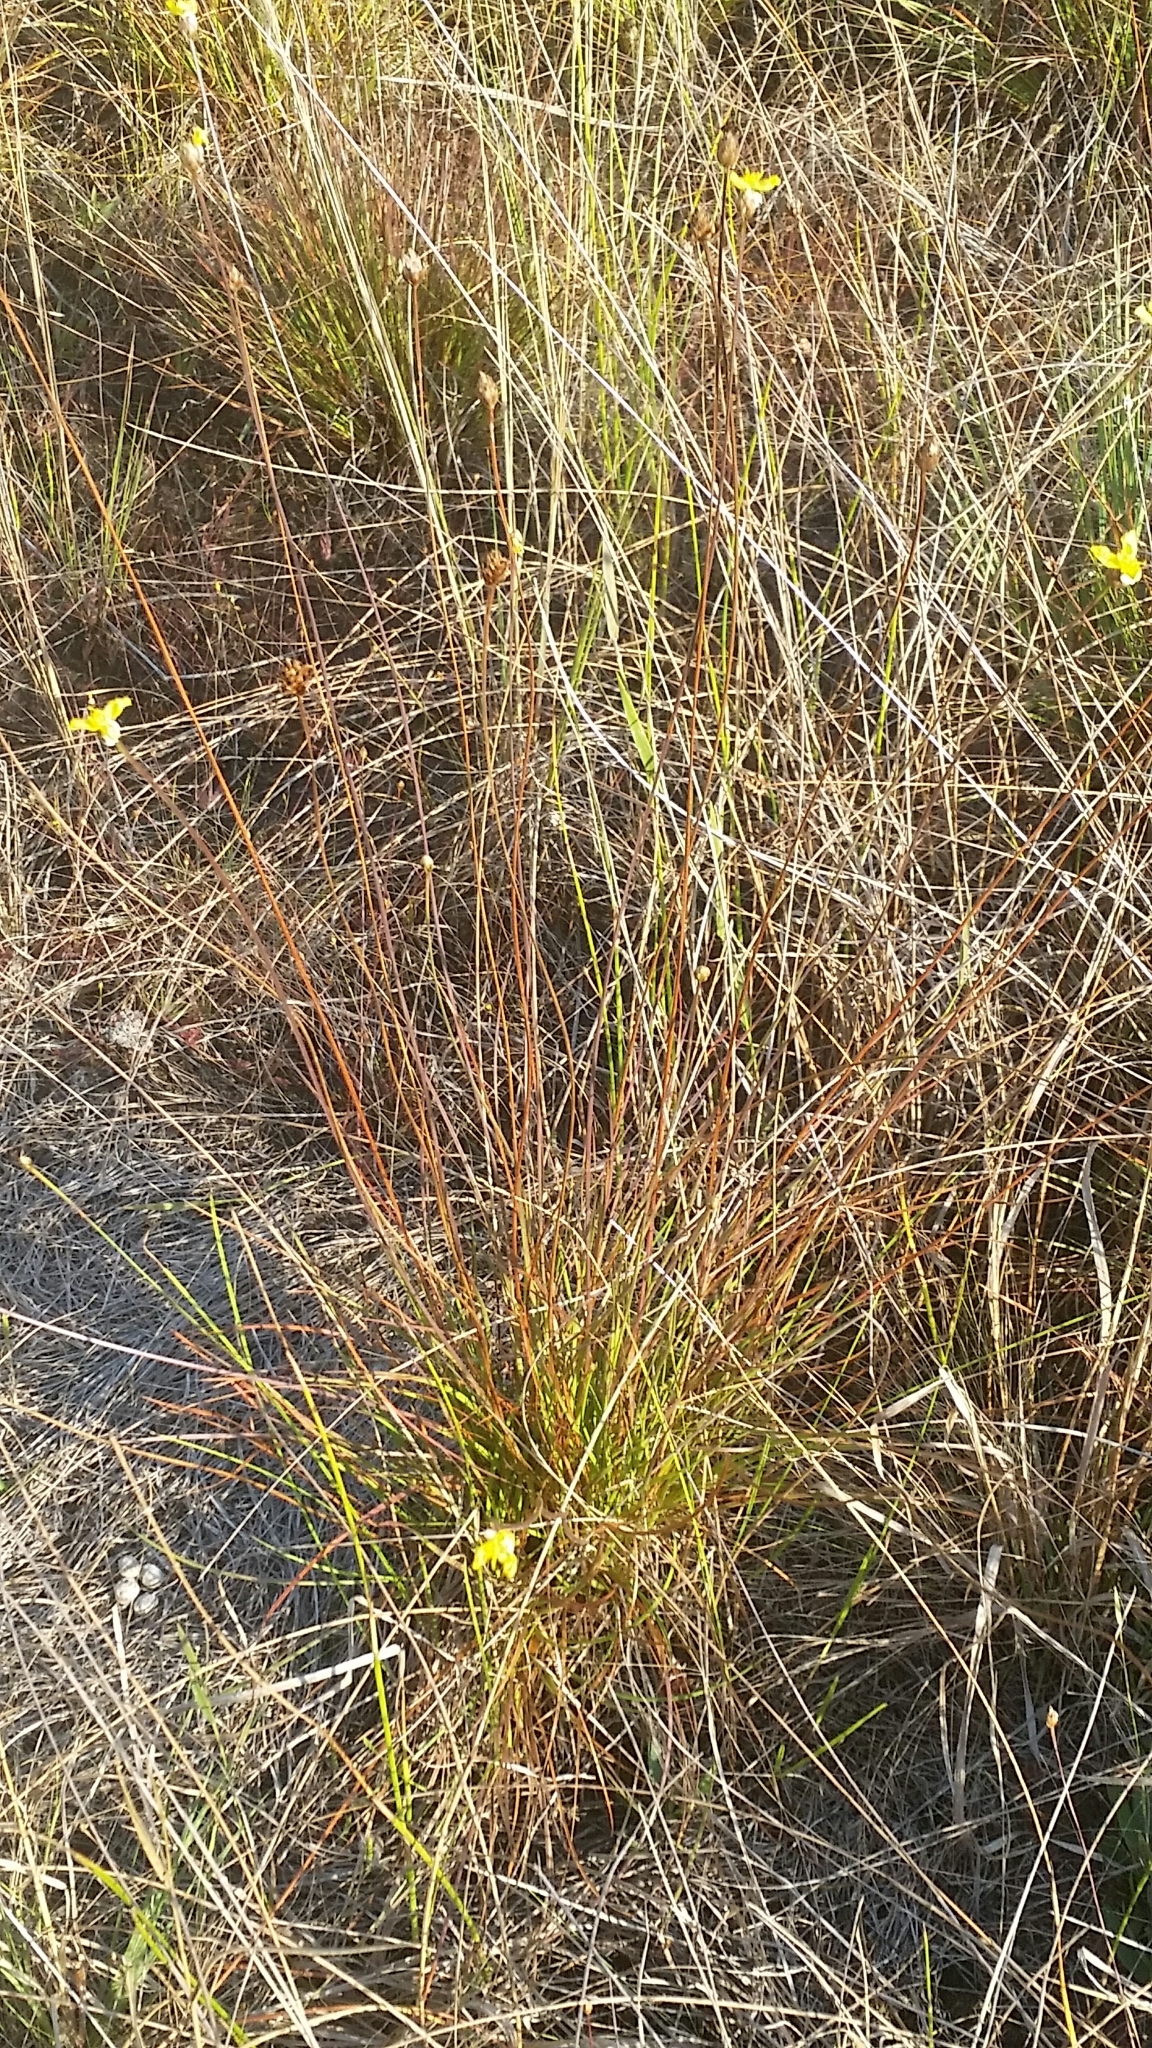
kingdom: Plantae
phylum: Tracheophyta
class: Liliopsida
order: Poales
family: Xyridaceae
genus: Xyris
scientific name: Xyris elliottii
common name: Elliot's yelloweyed grass
